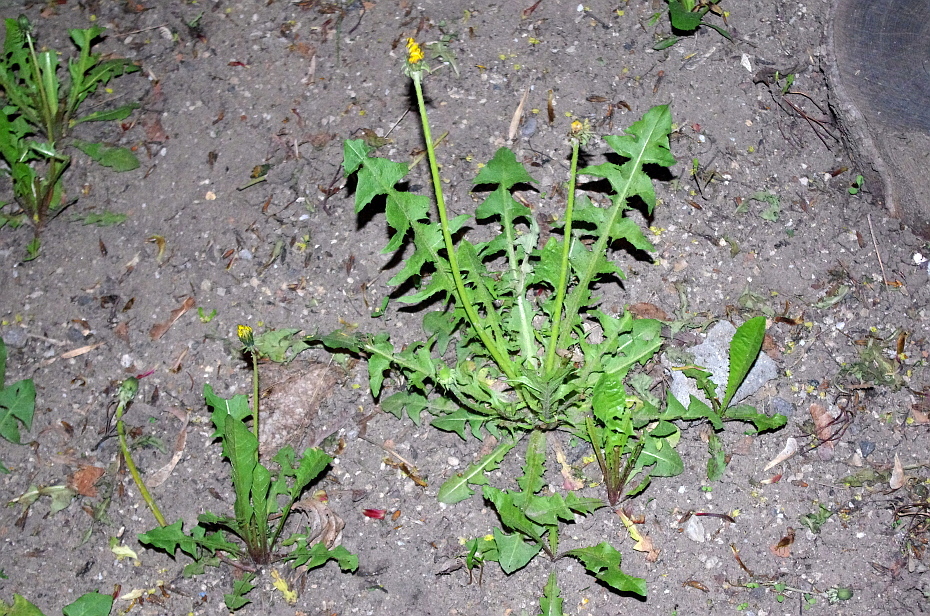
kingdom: Plantae
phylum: Tracheophyta
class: Magnoliopsida
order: Asterales
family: Asteraceae
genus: Taraxacum
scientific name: Taraxacum officinale
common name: Common dandelion
